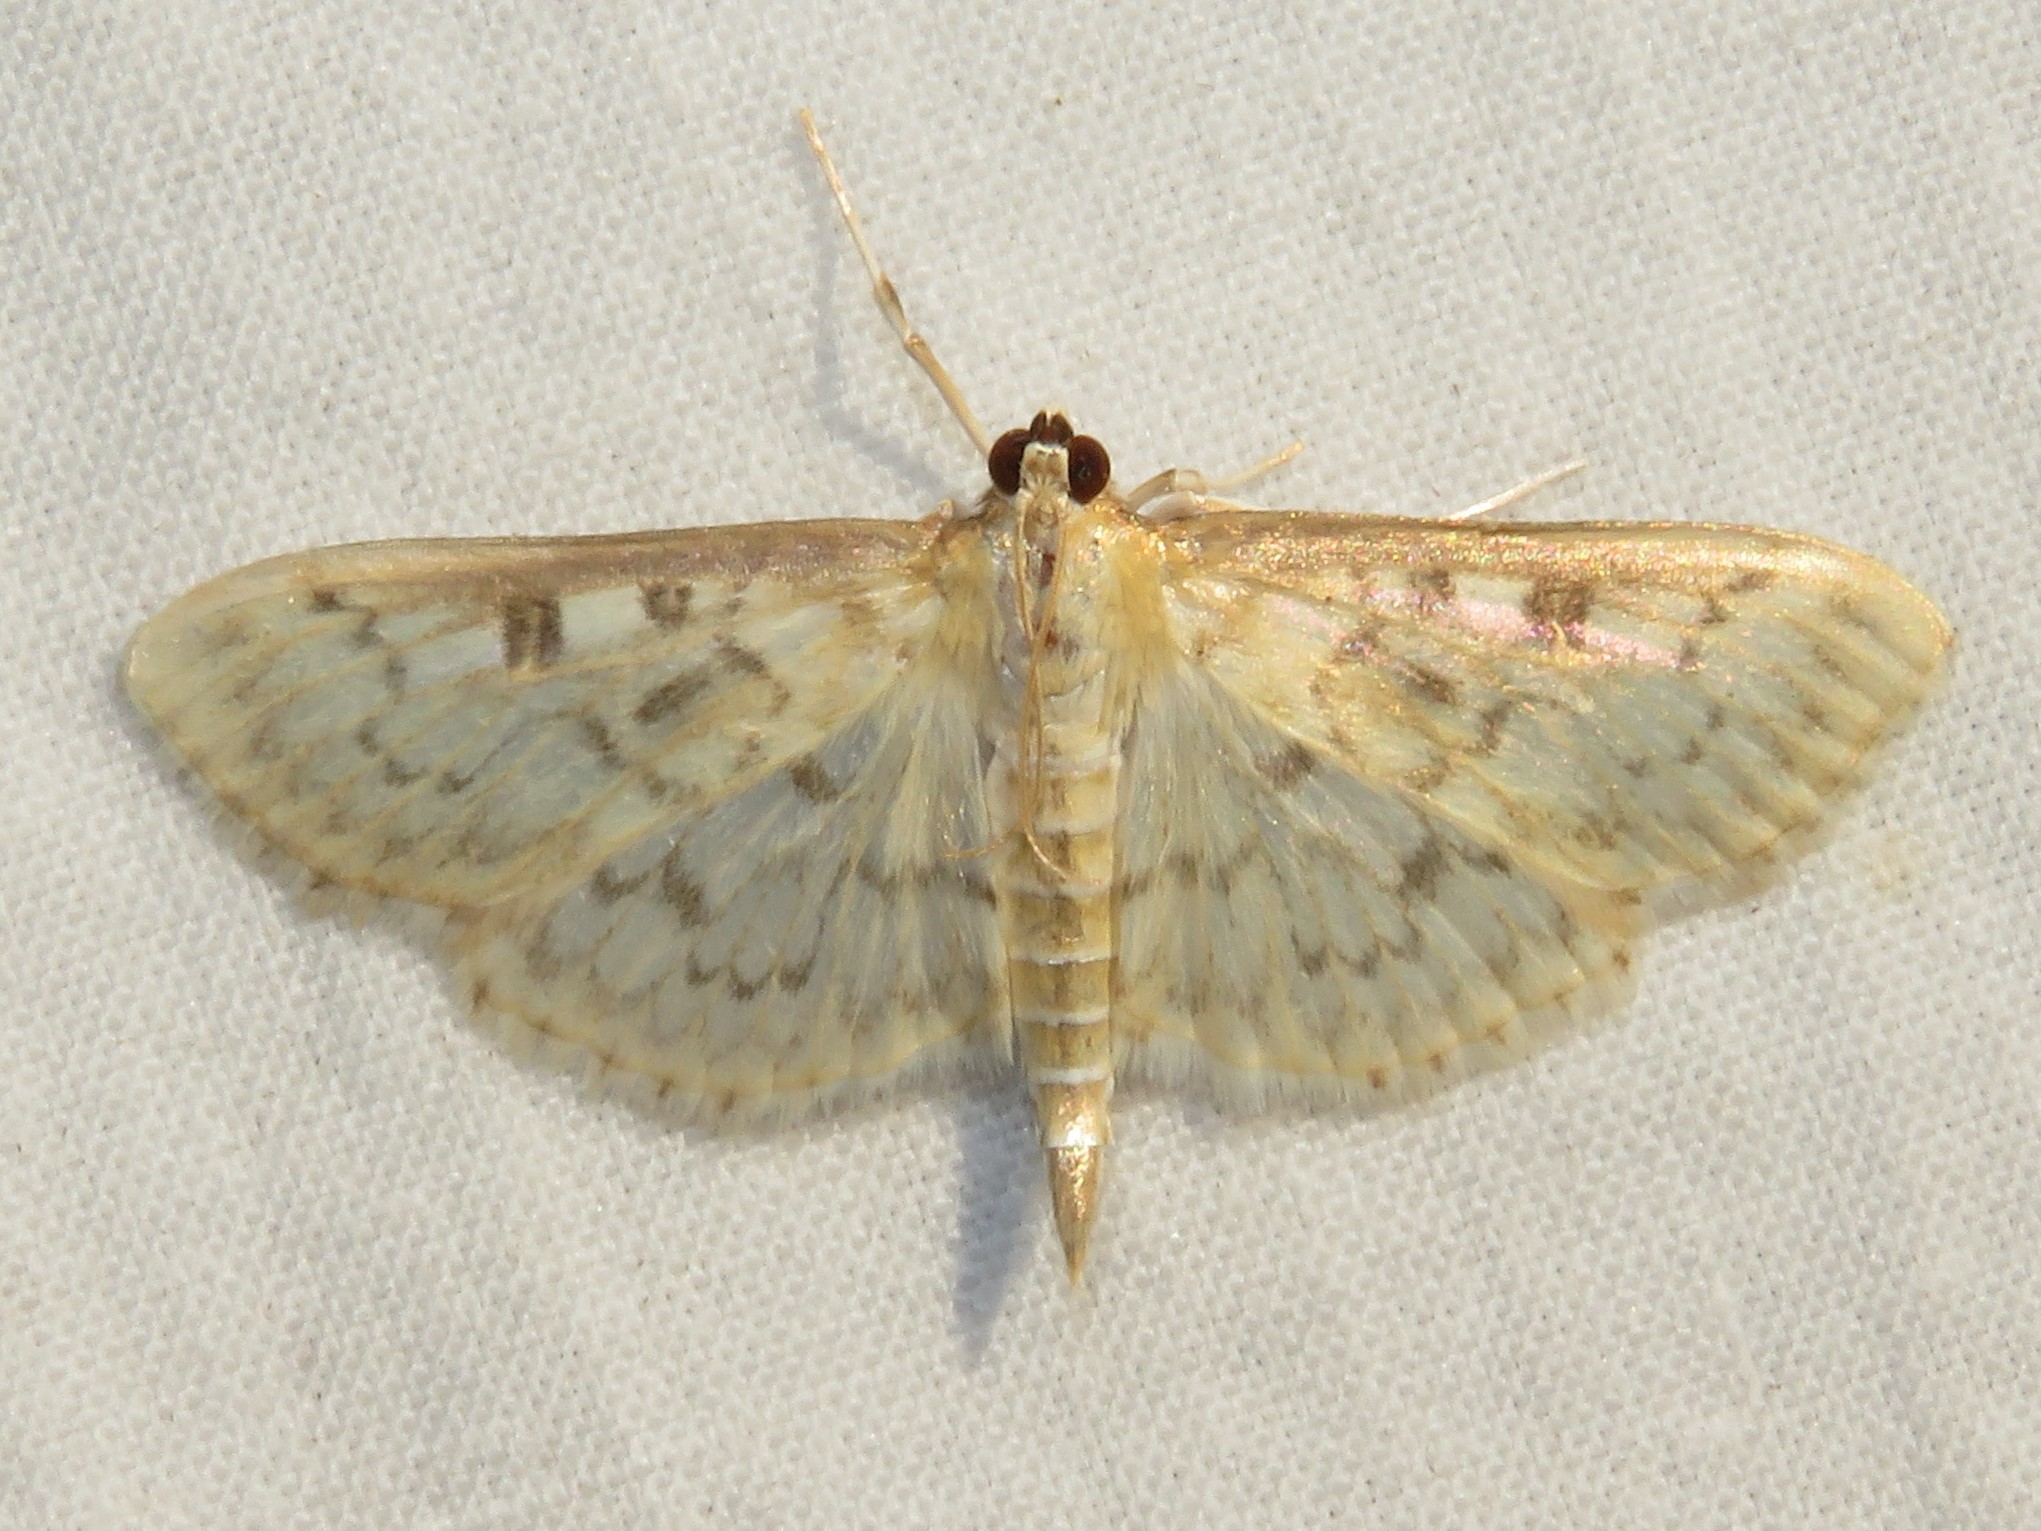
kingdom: Animalia
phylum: Arthropoda
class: Insecta
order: Lepidoptera
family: Crambidae
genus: Herpetogramma
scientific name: Herpetogramma aquilonalis
